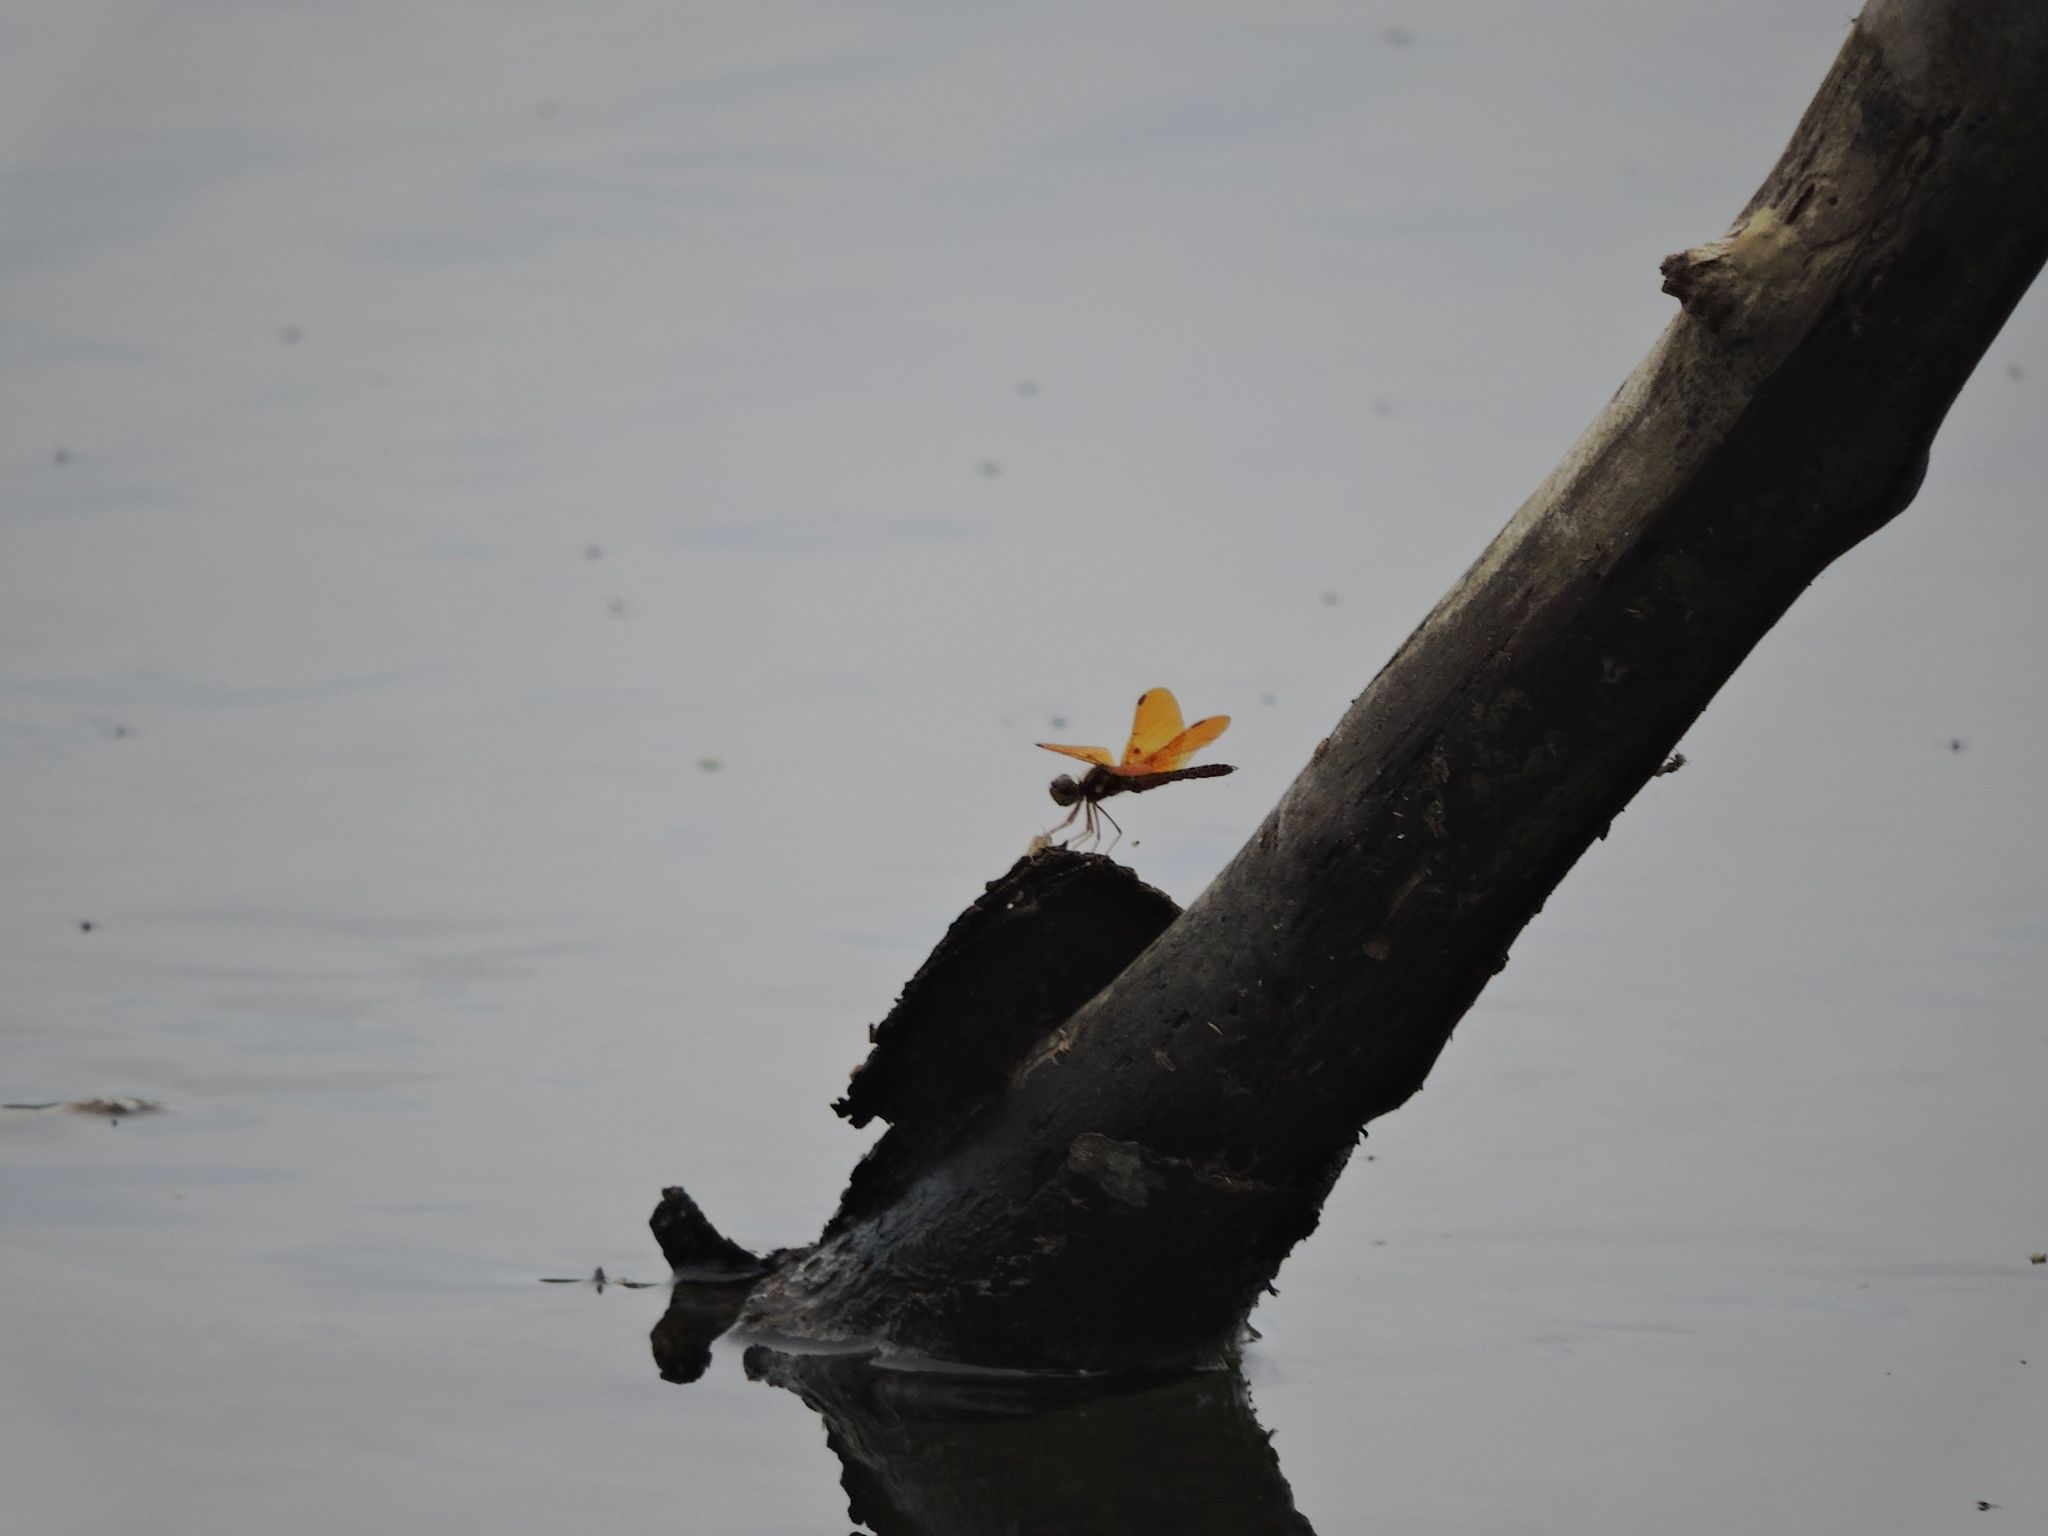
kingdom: Animalia
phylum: Arthropoda
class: Insecta
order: Odonata
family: Libellulidae
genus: Perithemis
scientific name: Perithemis tenera
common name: Eastern amberwing
